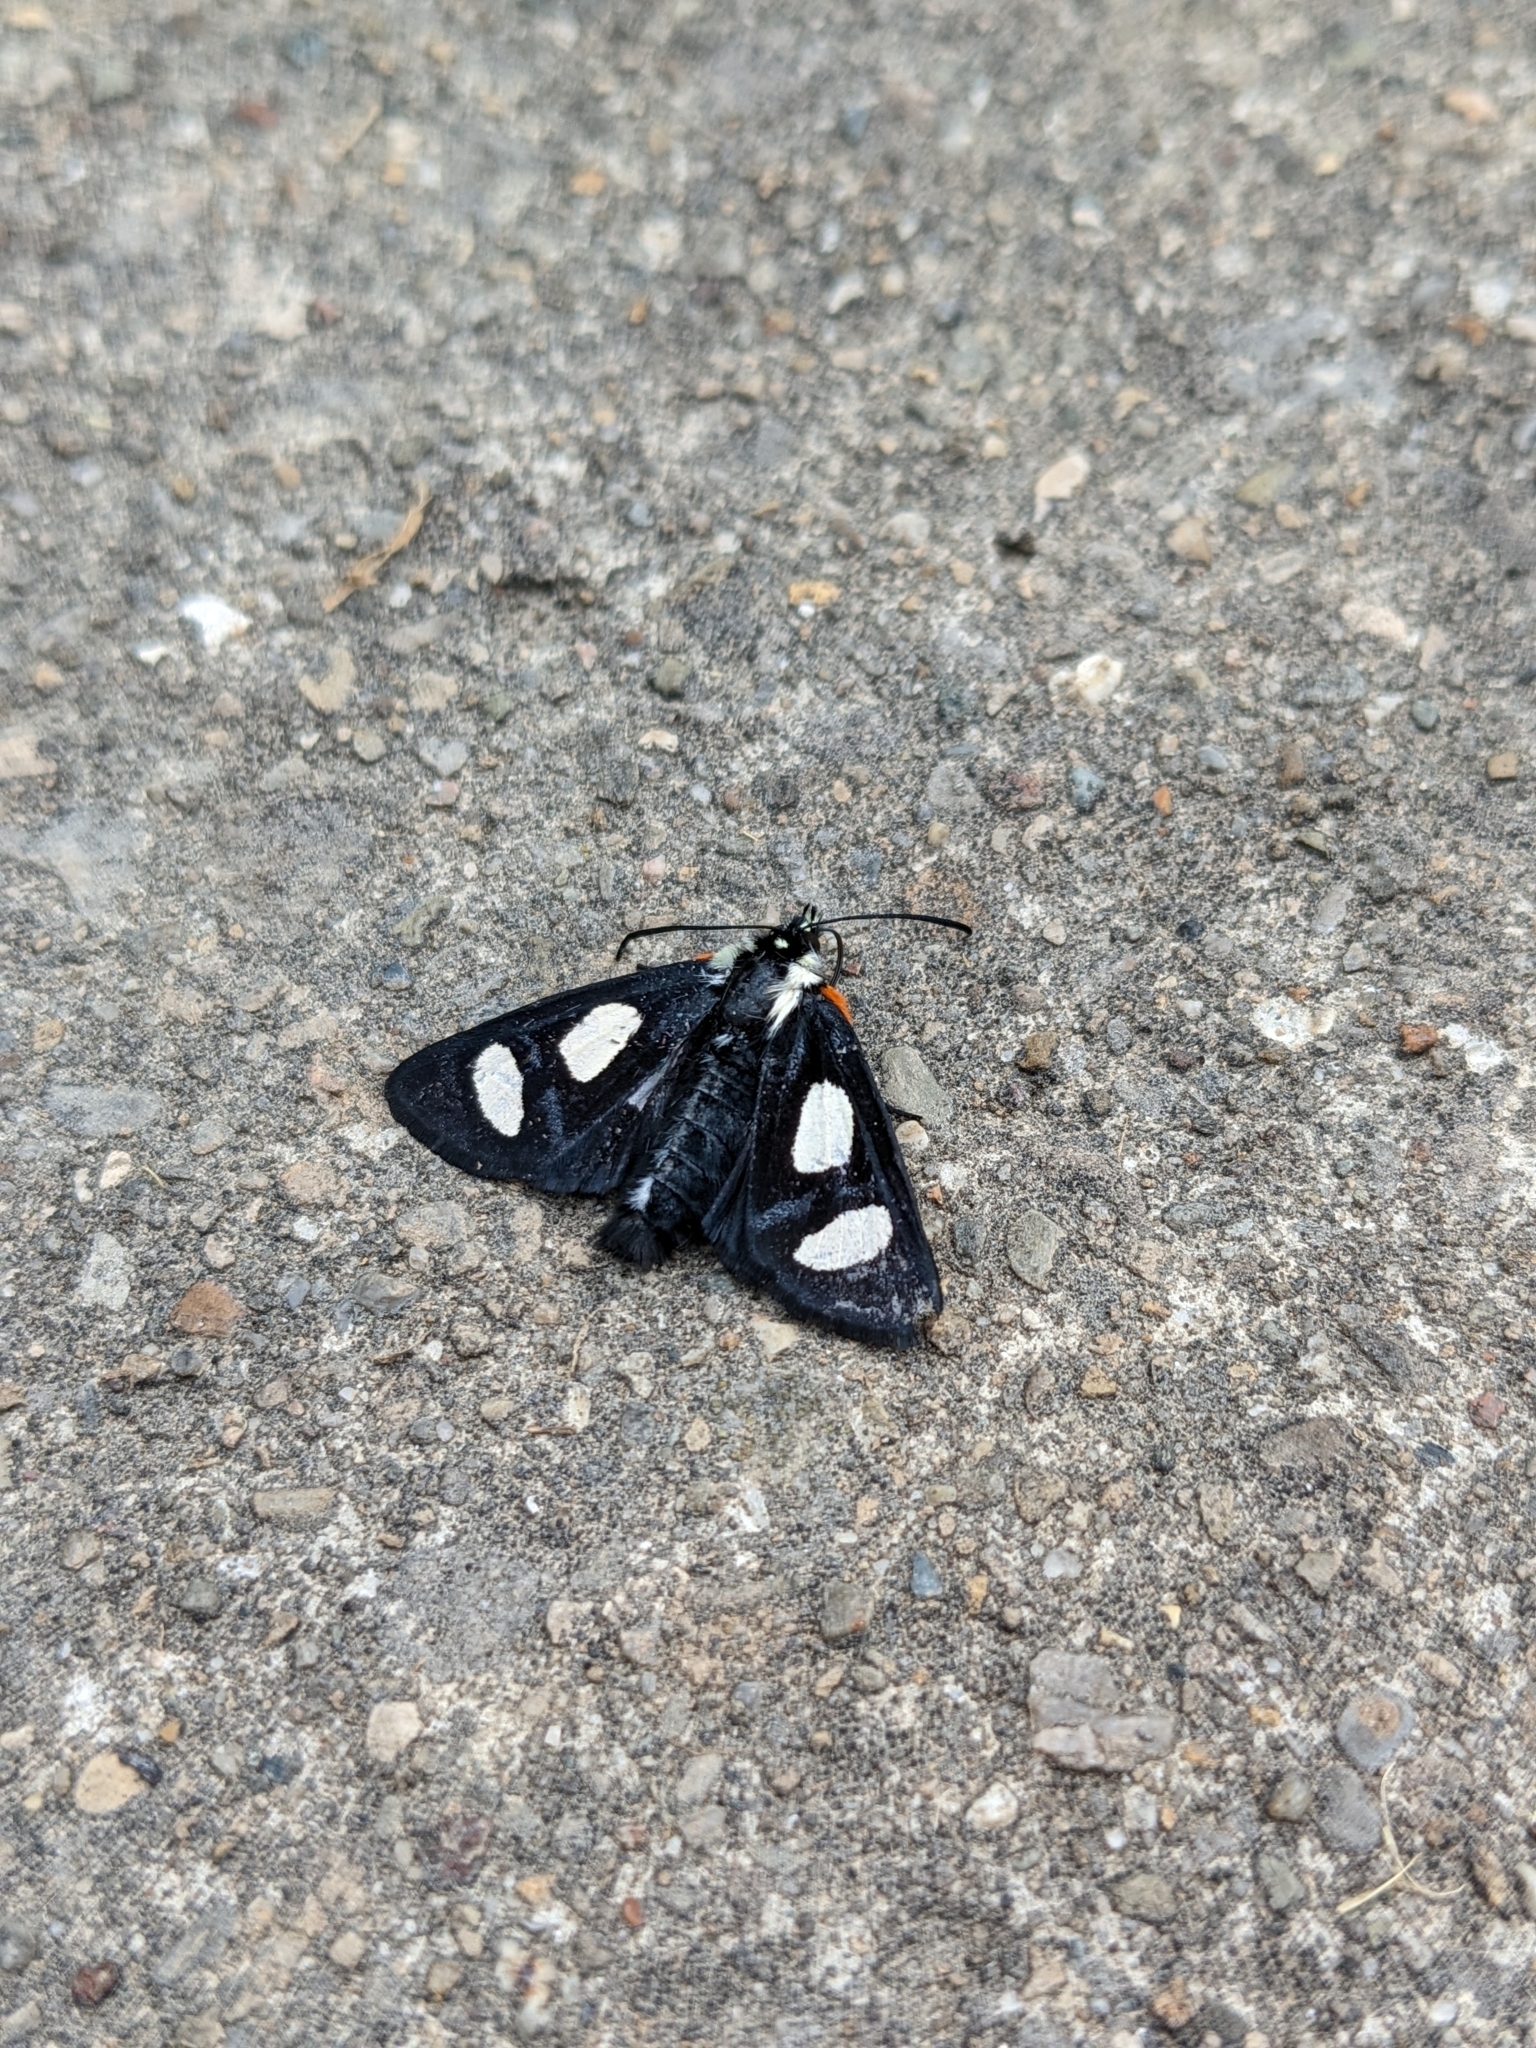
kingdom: Animalia
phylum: Arthropoda
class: Insecta
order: Lepidoptera
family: Noctuidae
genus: Alypia
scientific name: Alypia octomaculata
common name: Eight-spotted forester
